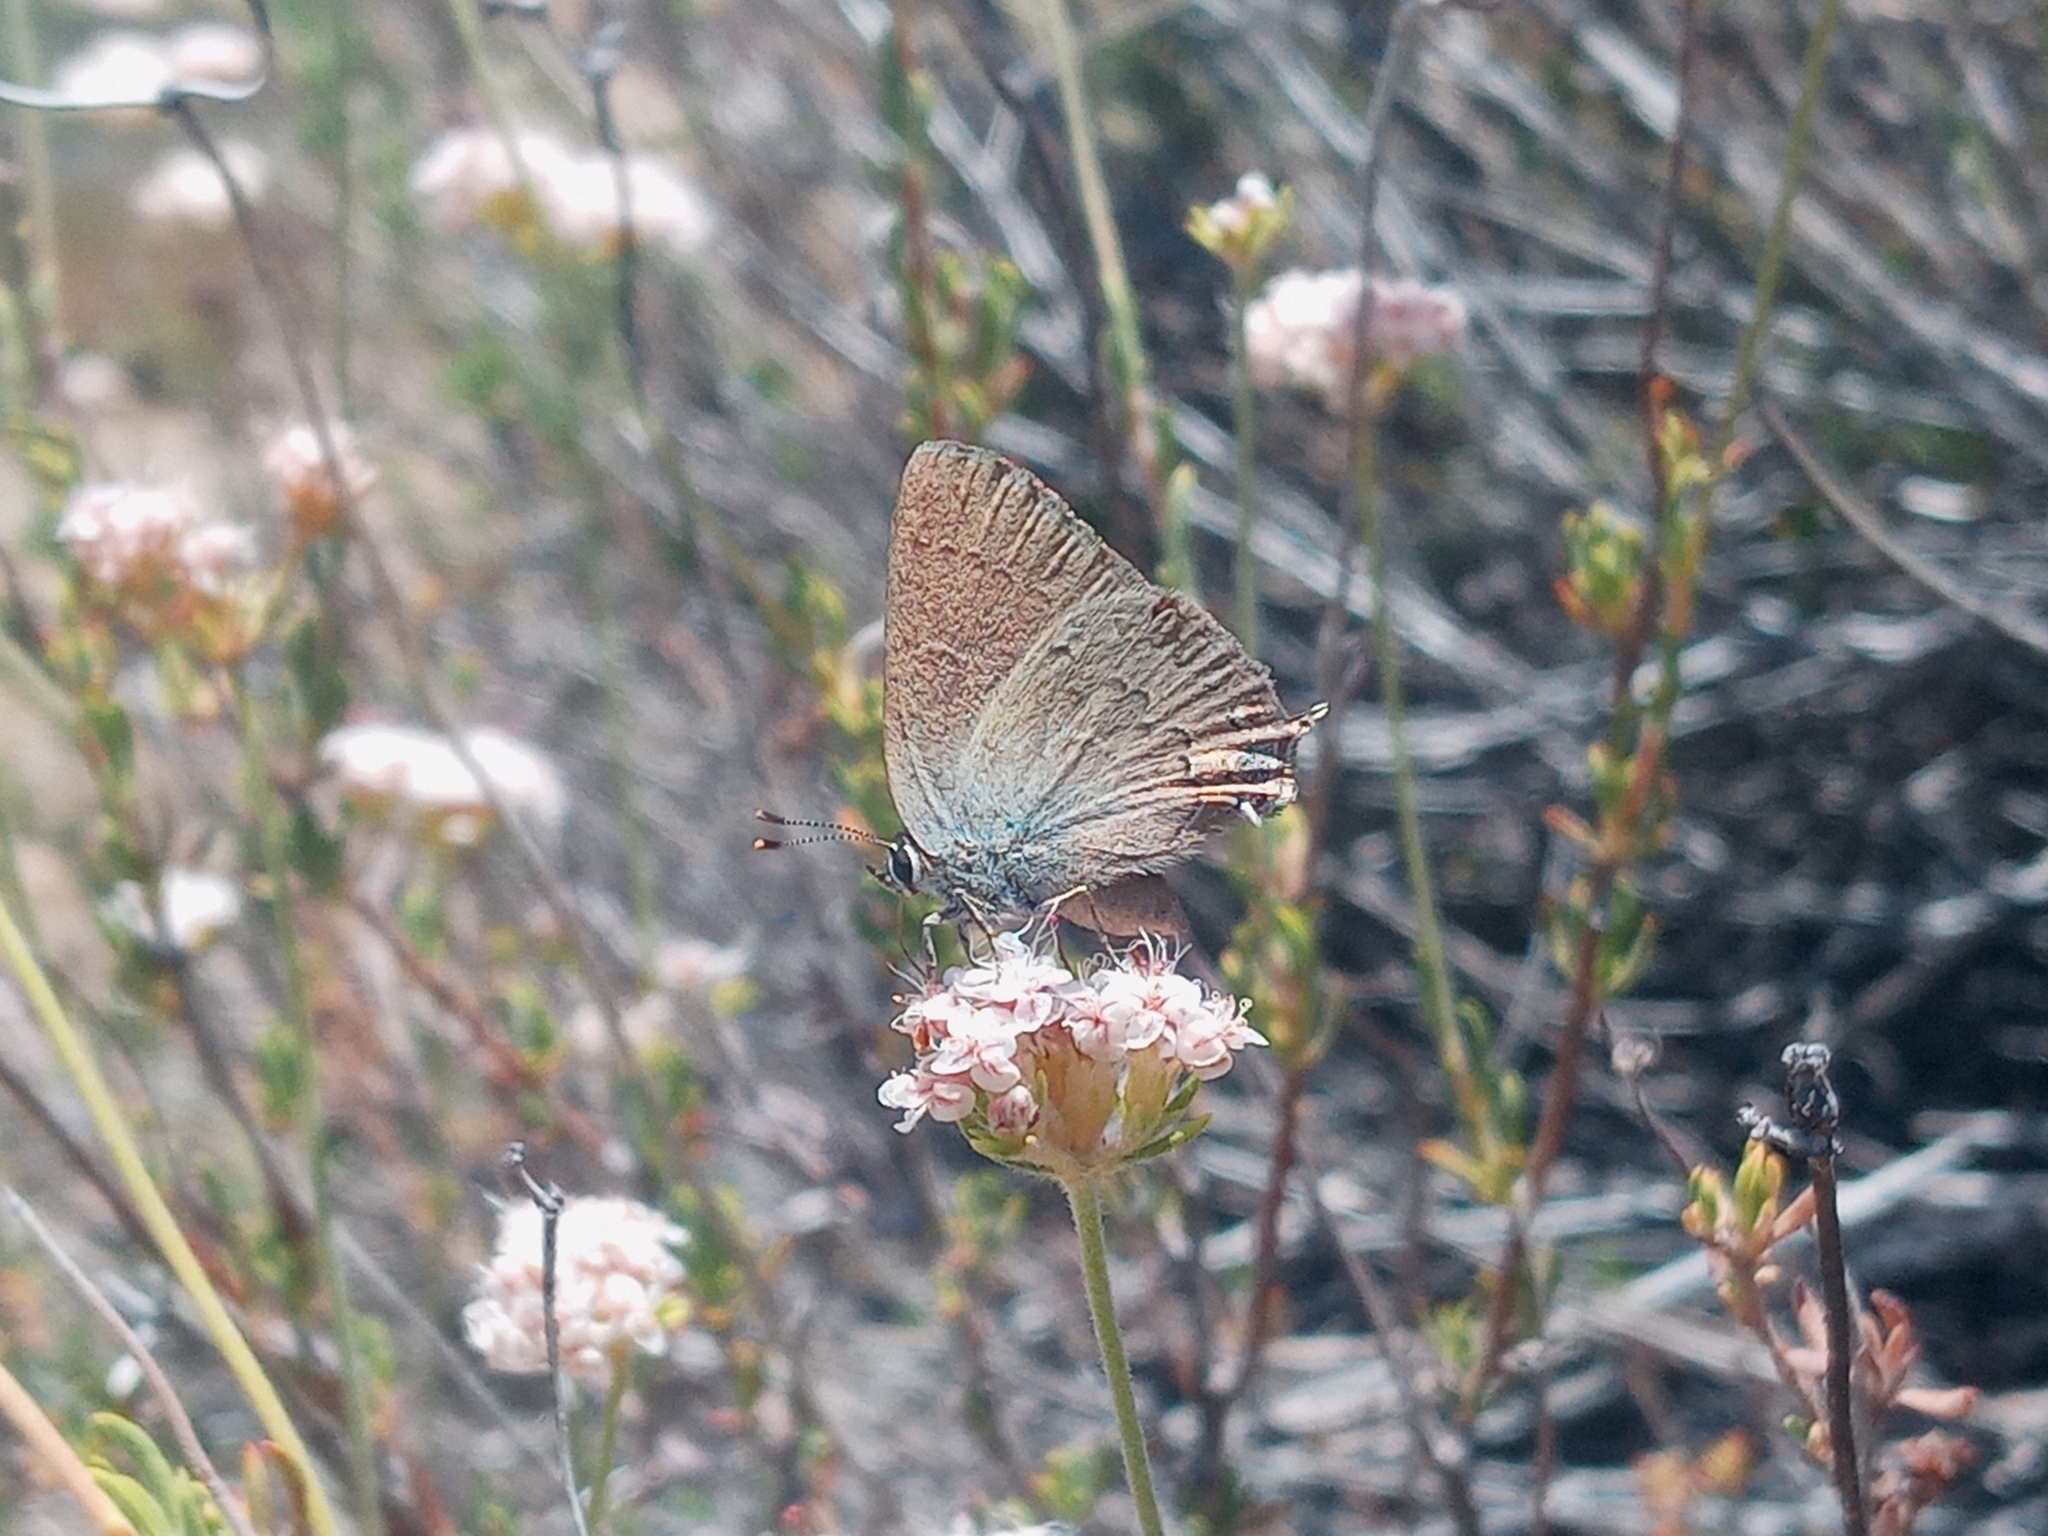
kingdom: Animalia
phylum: Arthropoda
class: Insecta
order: Lepidoptera
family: Lycaenidae
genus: Strymon
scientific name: Strymon saepium
